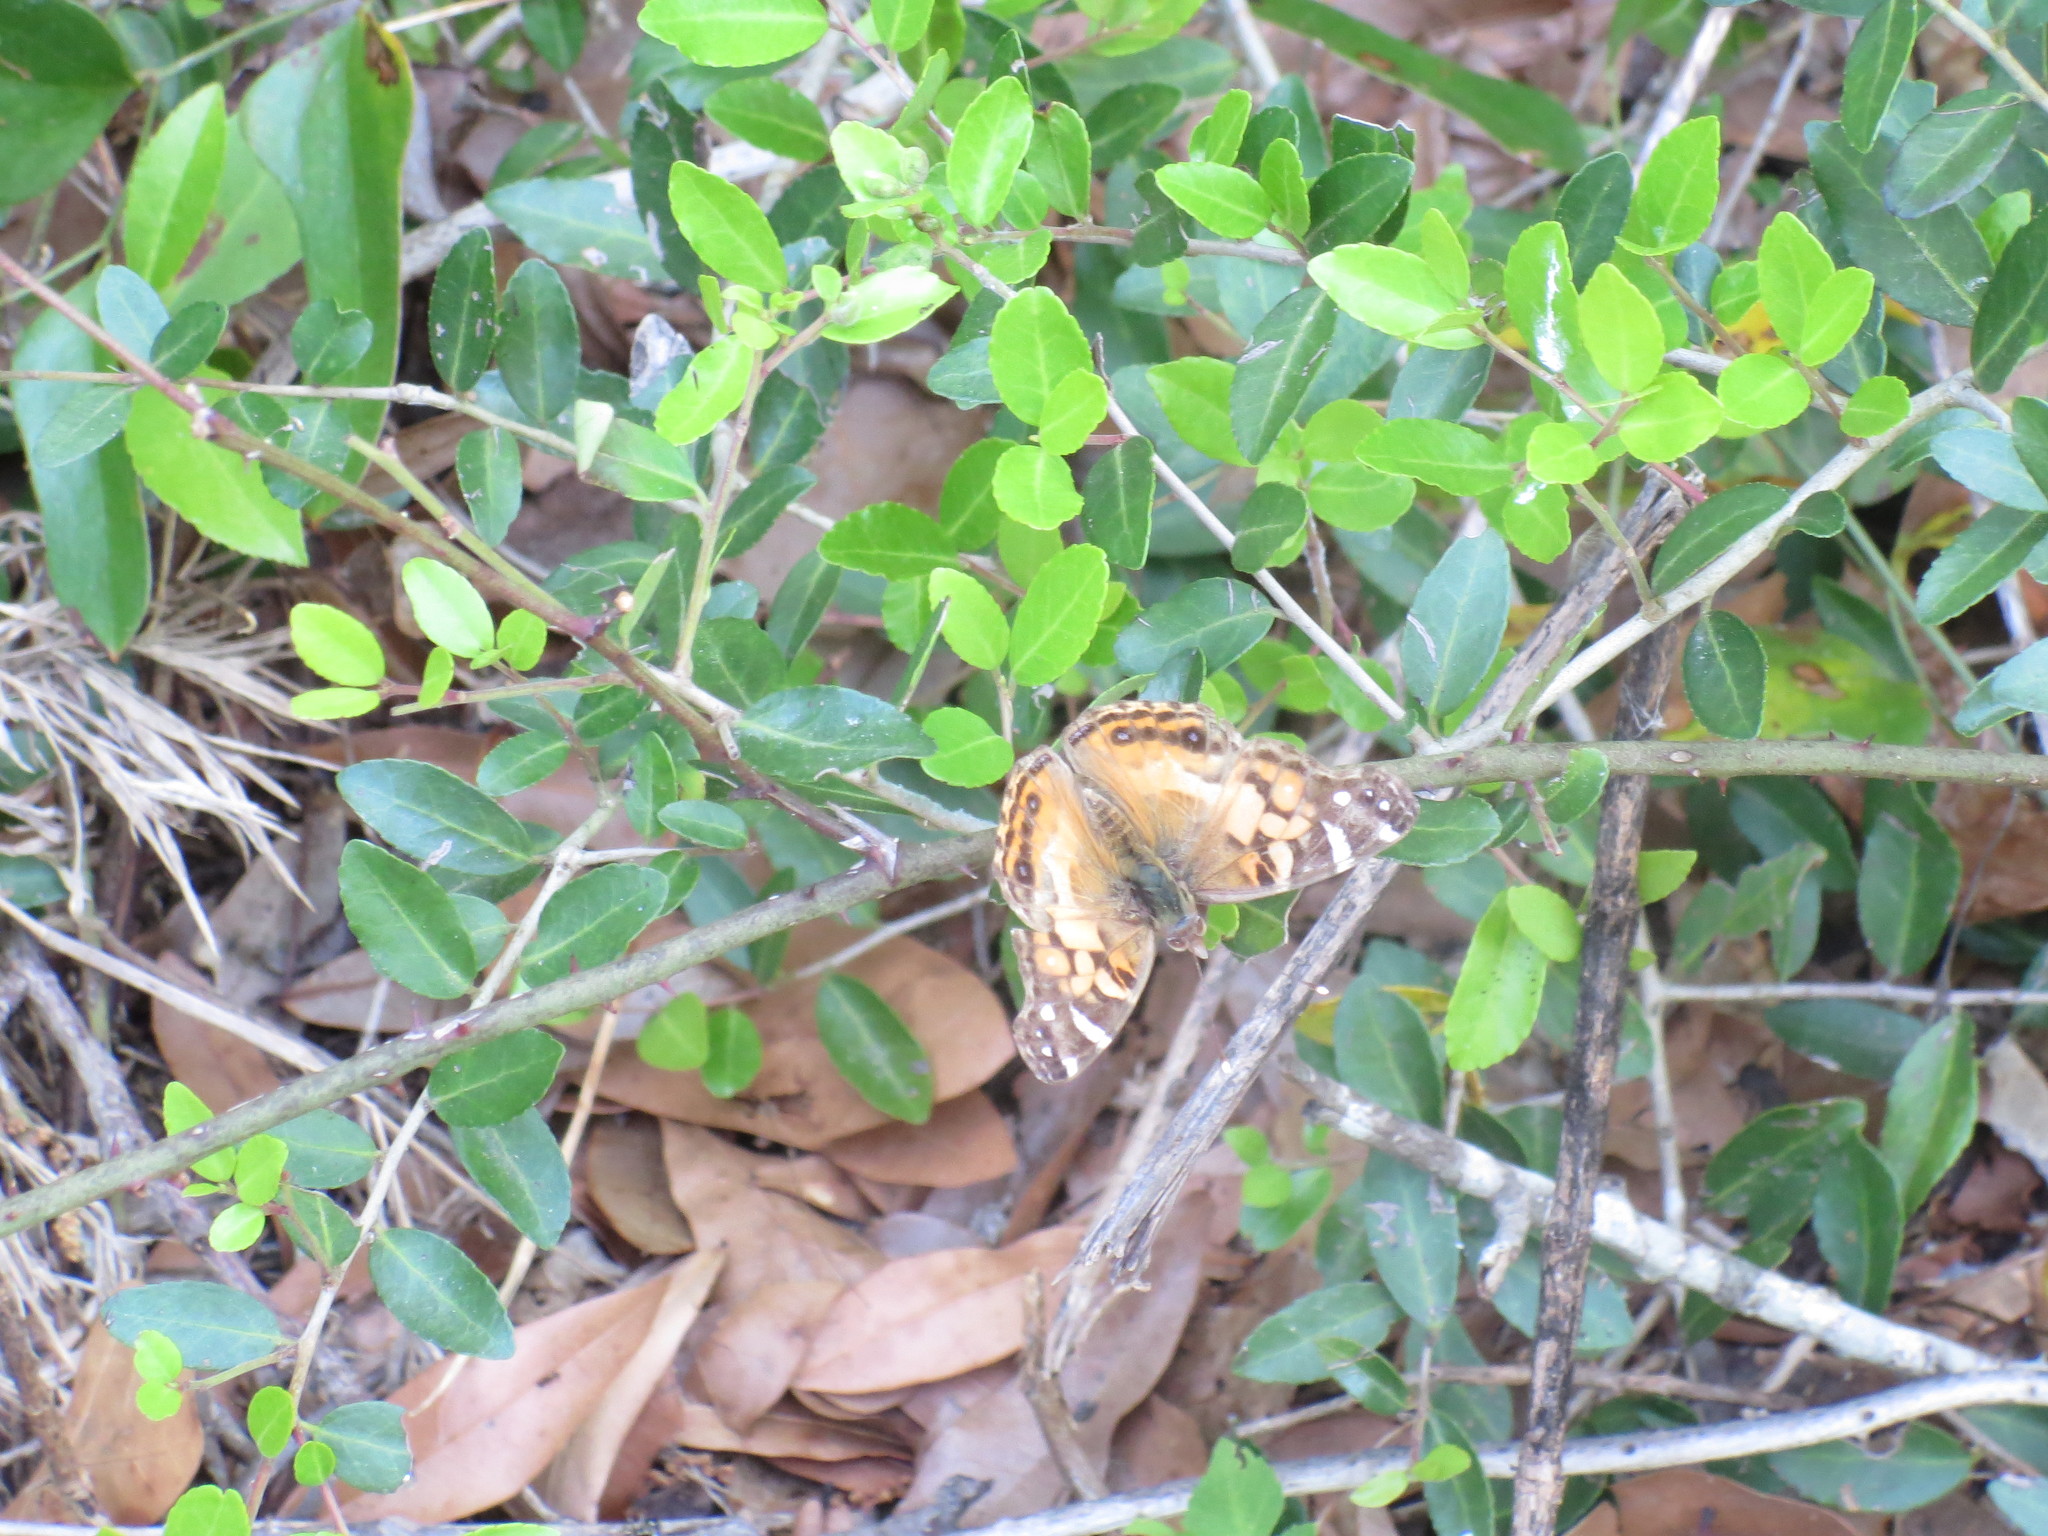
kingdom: Animalia
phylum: Arthropoda
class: Insecta
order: Lepidoptera
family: Nymphalidae
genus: Vanessa
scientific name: Vanessa virginiensis
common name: American lady
